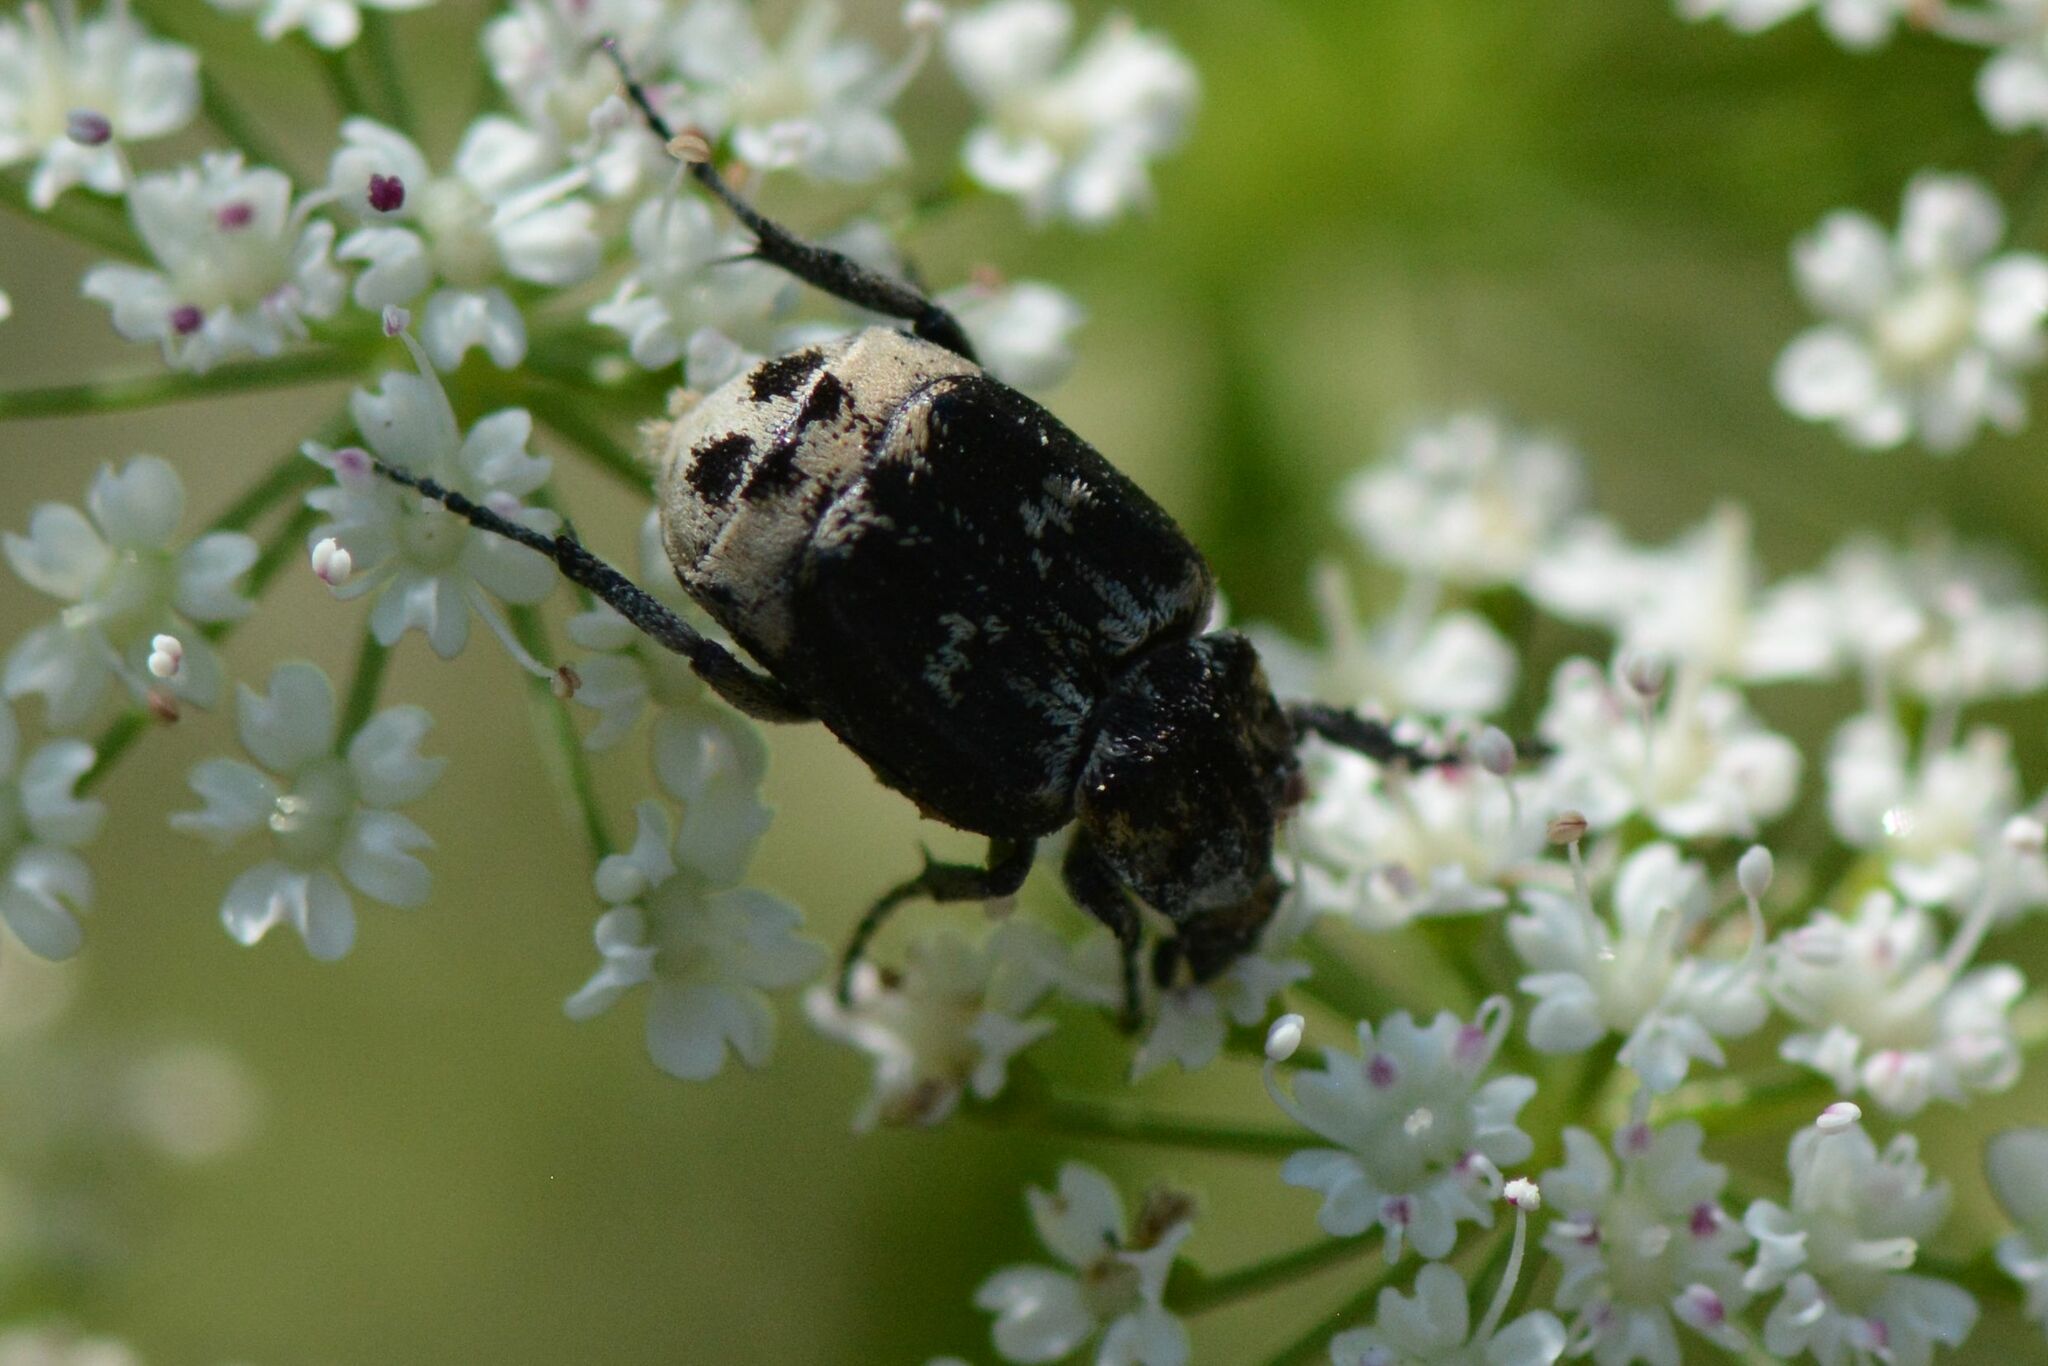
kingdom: Animalia
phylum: Arthropoda
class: Insecta
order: Coleoptera
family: Scarabaeidae
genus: Valgus
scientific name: Valgus hemipterus
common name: Bug flower chafer
